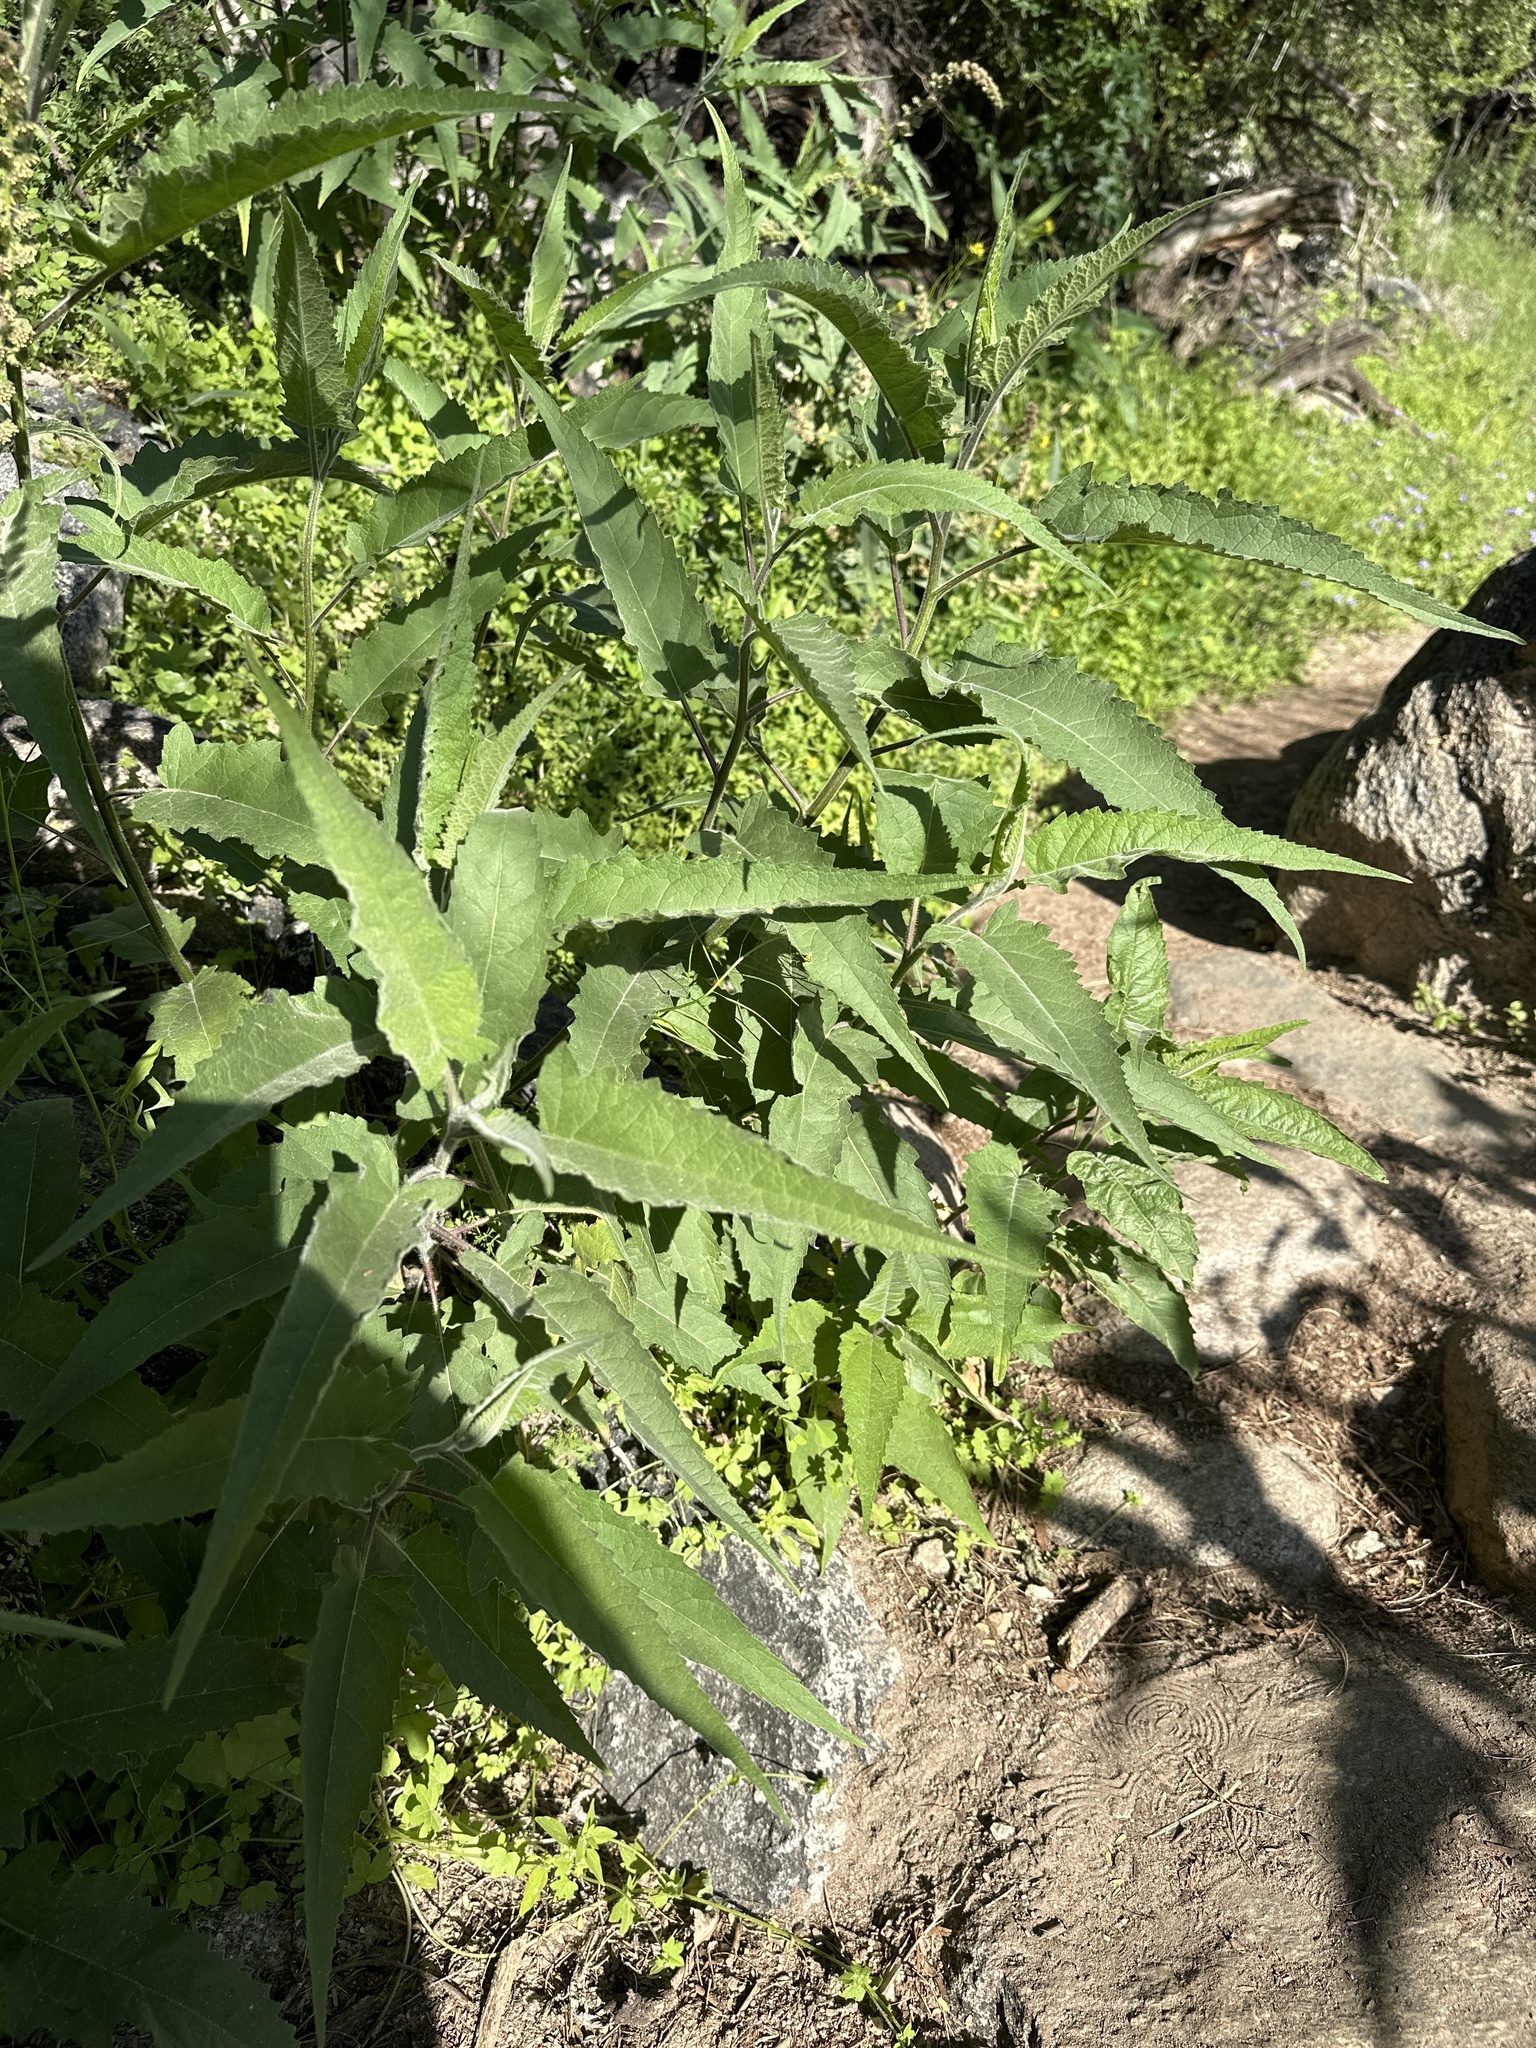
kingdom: Plantae
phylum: Tracheophyta
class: Magnoliopsida
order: Asterales
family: Asteraceae
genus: Ambrosia
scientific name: Ambrosia ambrosioides
